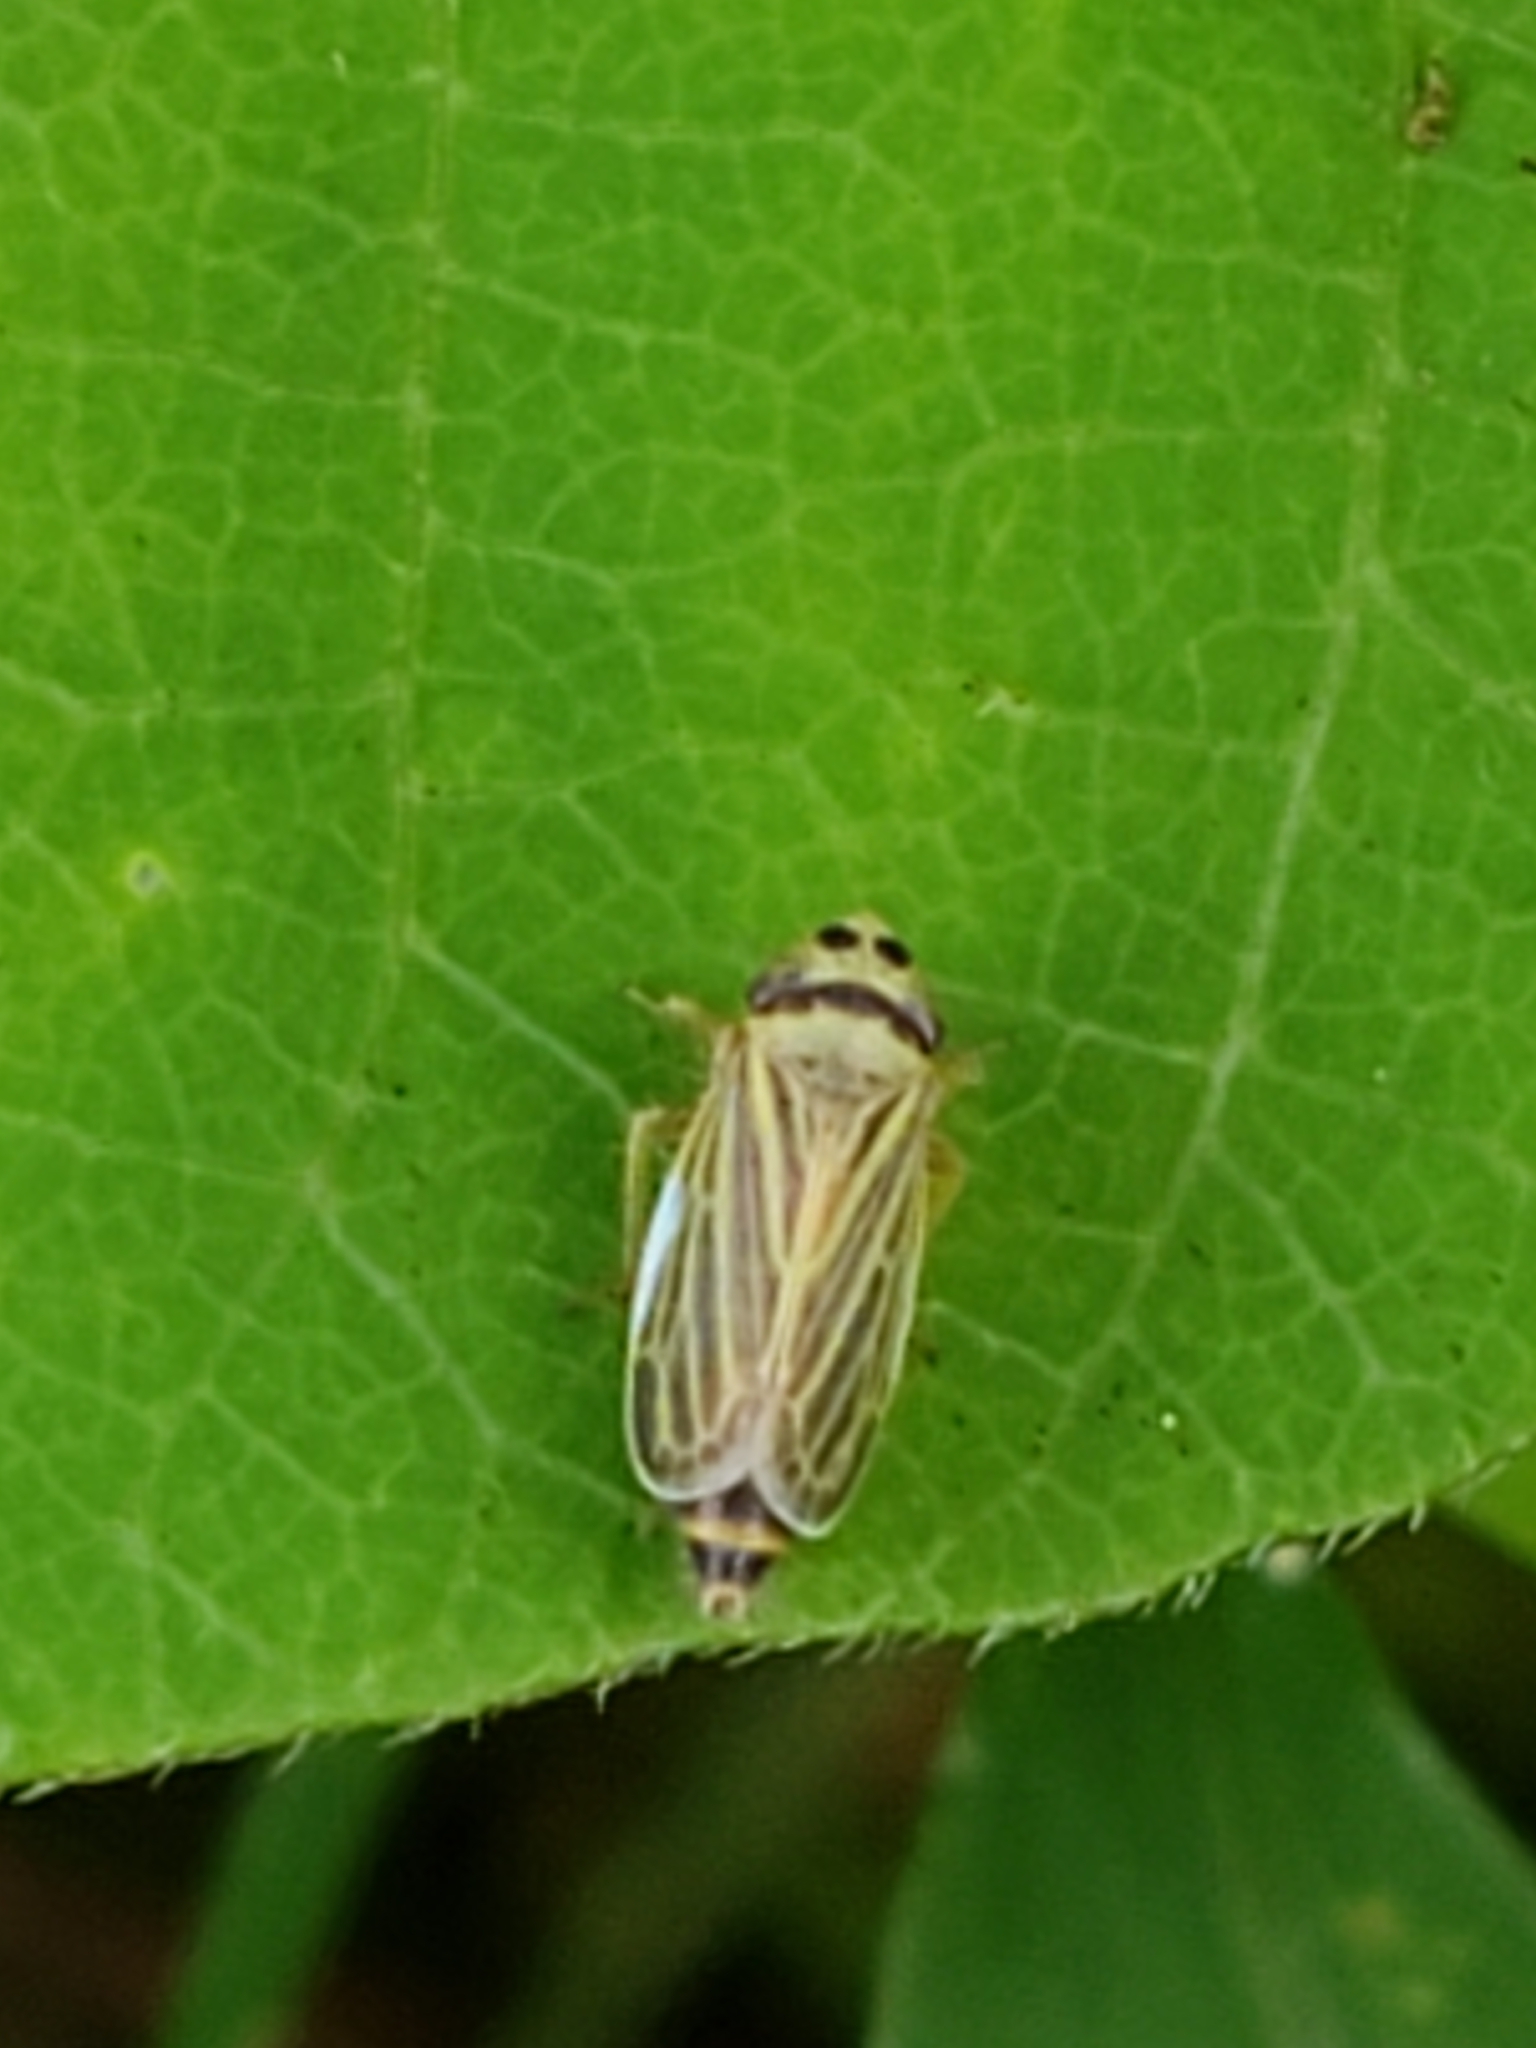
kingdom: Animalia
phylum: Arthropoda
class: Insecta
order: Hemiptera
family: Cicadellidae
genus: Amblysellus
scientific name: Amblysellus curtisii
